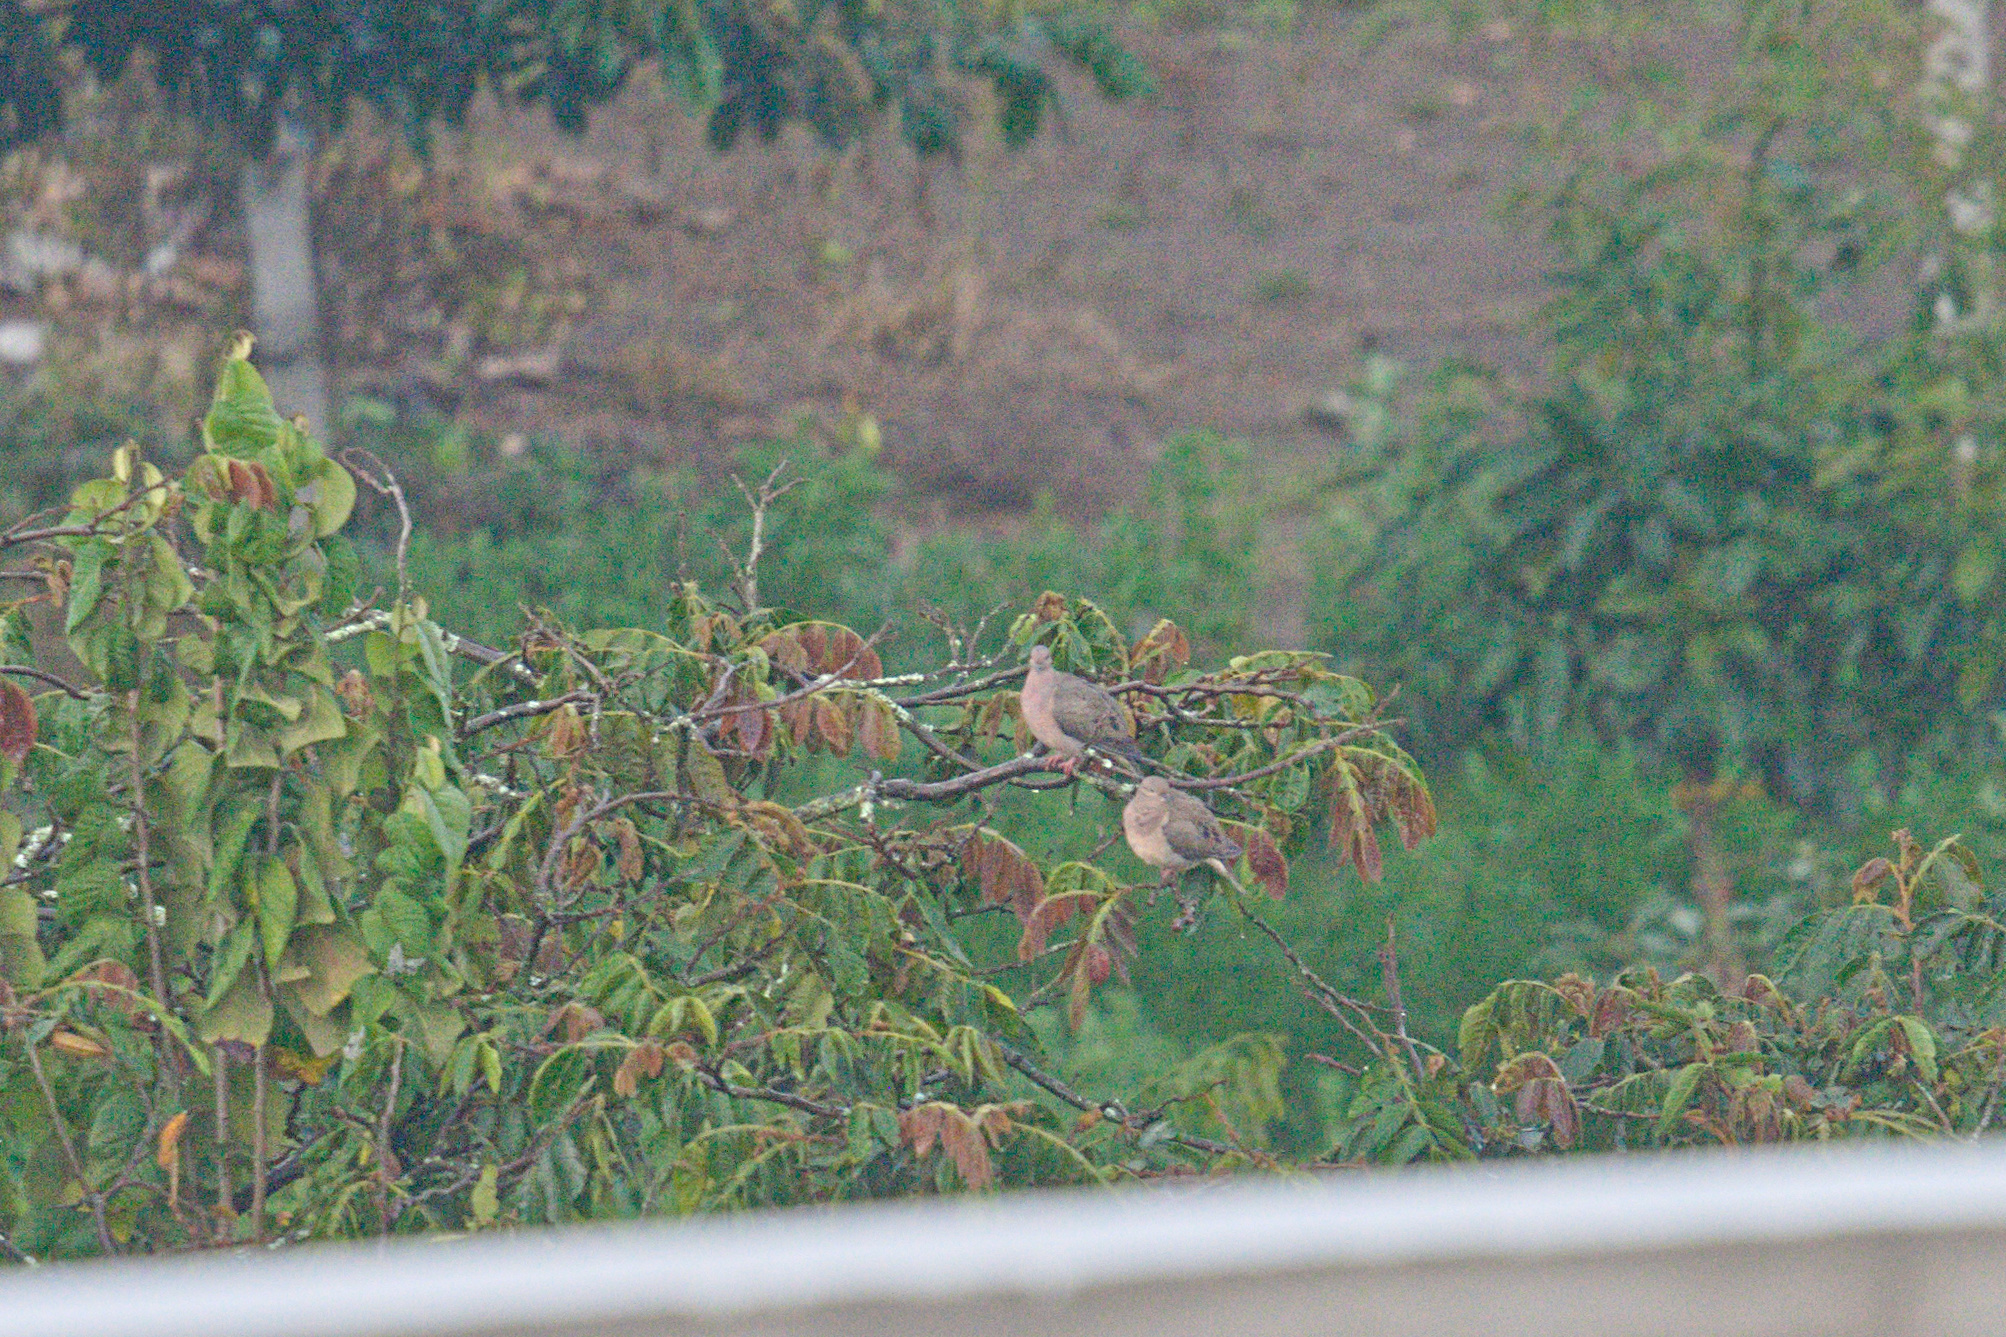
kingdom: Animalia
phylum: Chordata
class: Aves
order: Columbiformes
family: Columbidae
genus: Zenaida
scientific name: Zenaida auriculata
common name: Eared dove
